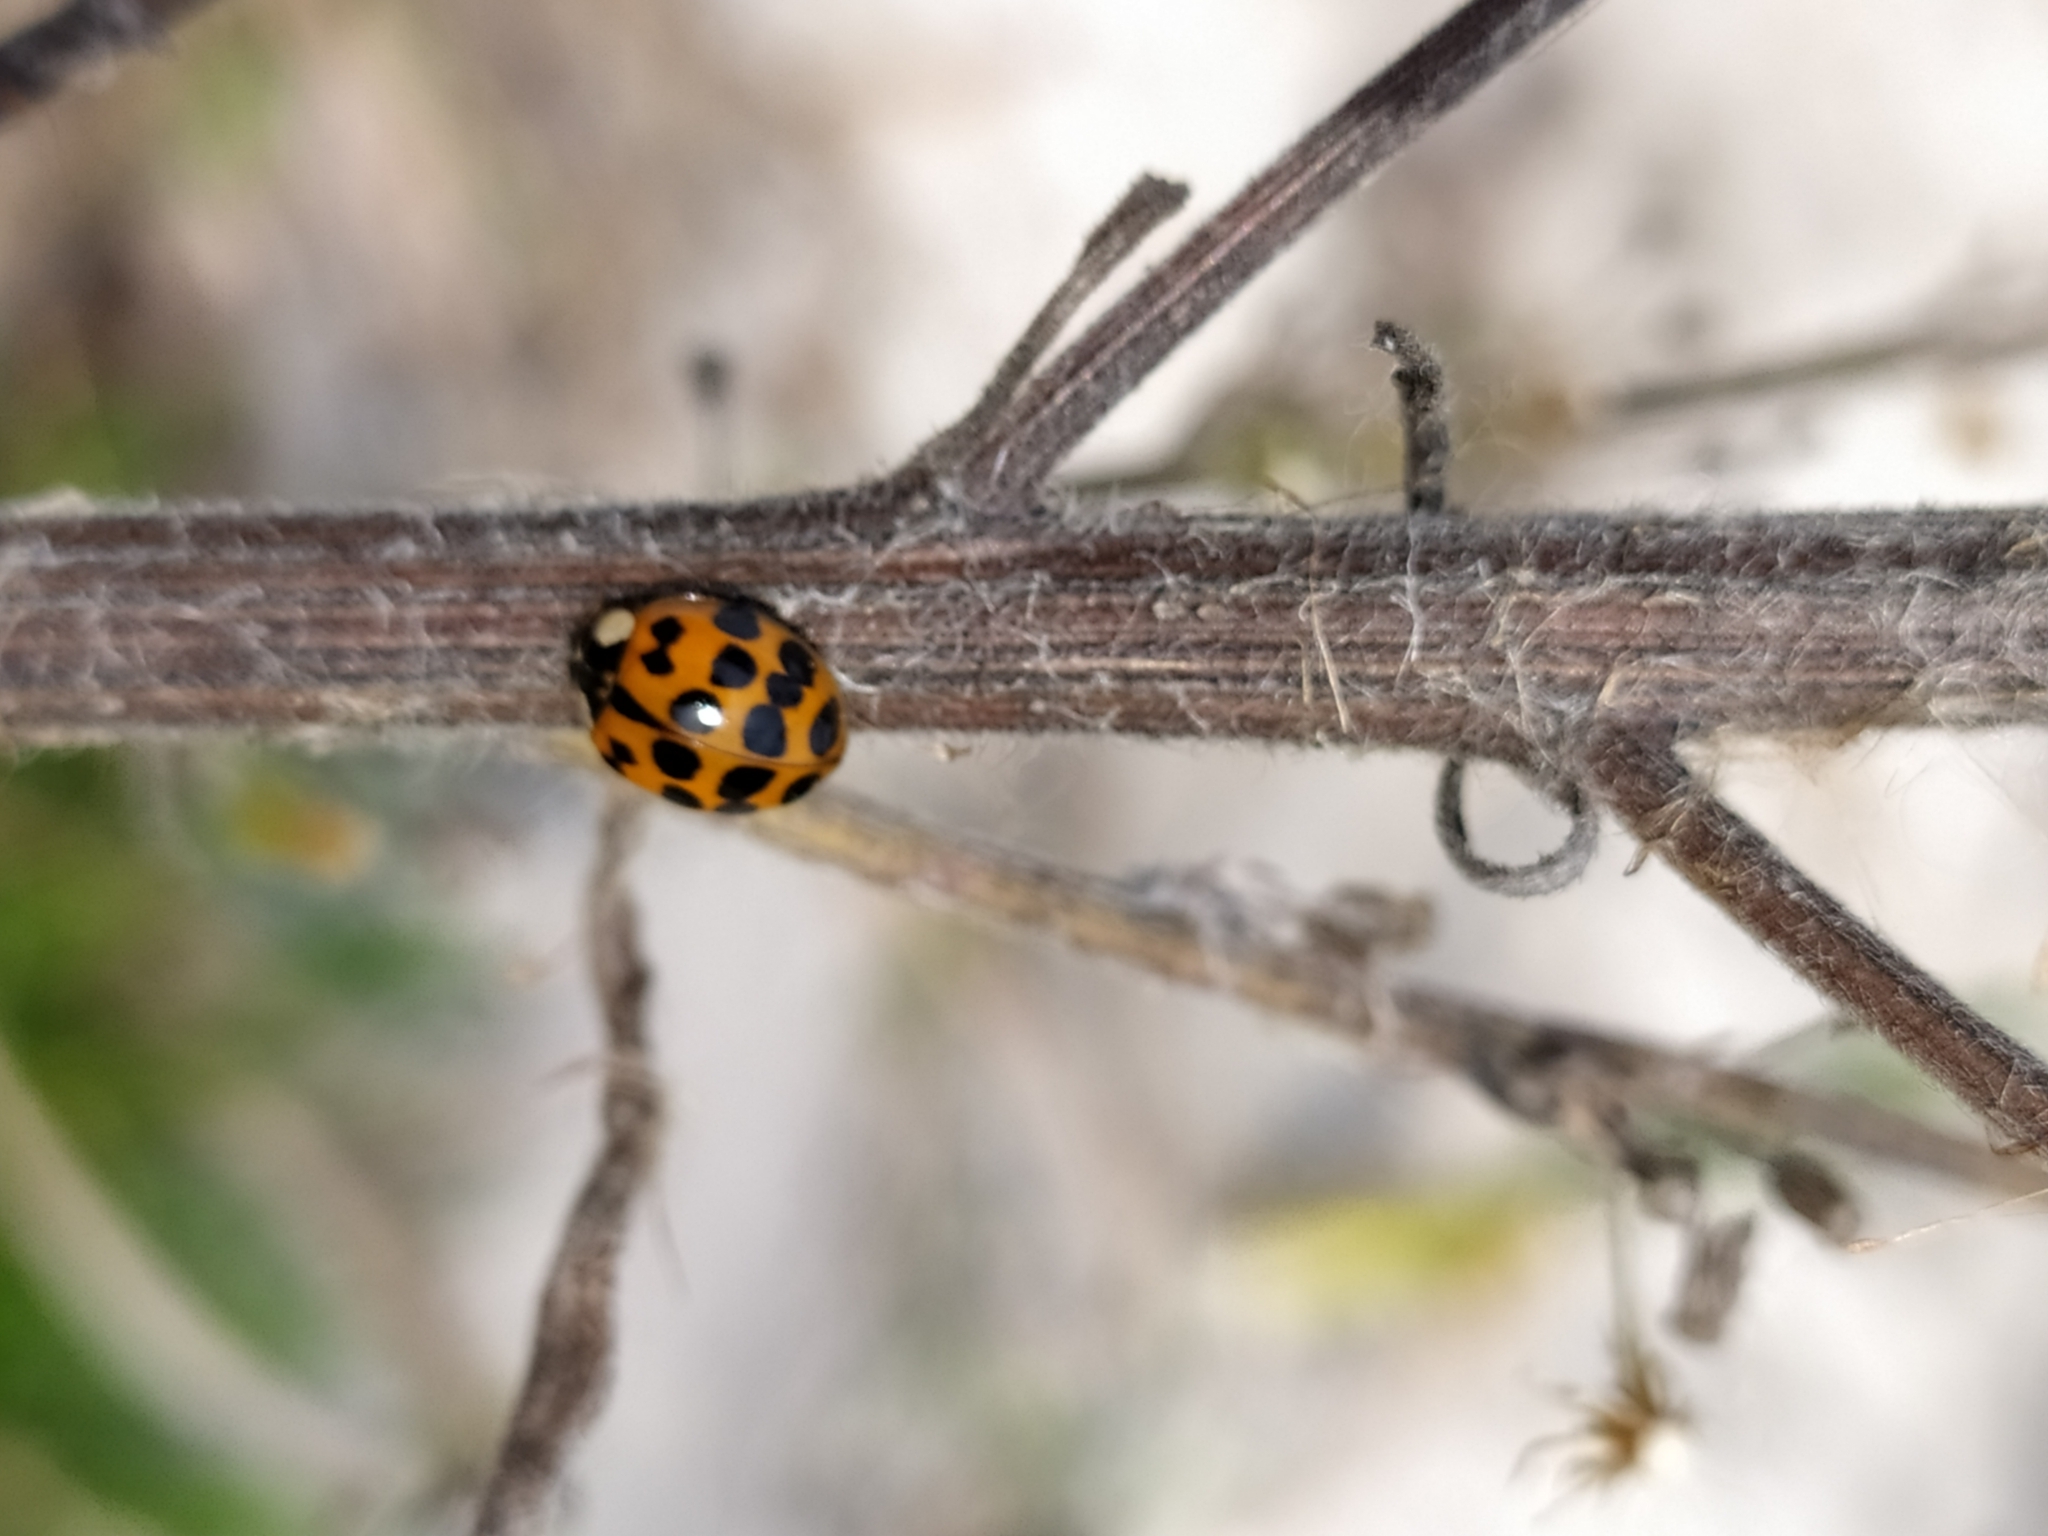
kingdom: Animalia
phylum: Arthropoda
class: Insecta
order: Coleoptera
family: Coccinellidae
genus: Harmonia
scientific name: Harmonia axyridis
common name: Harlequin ladybird
